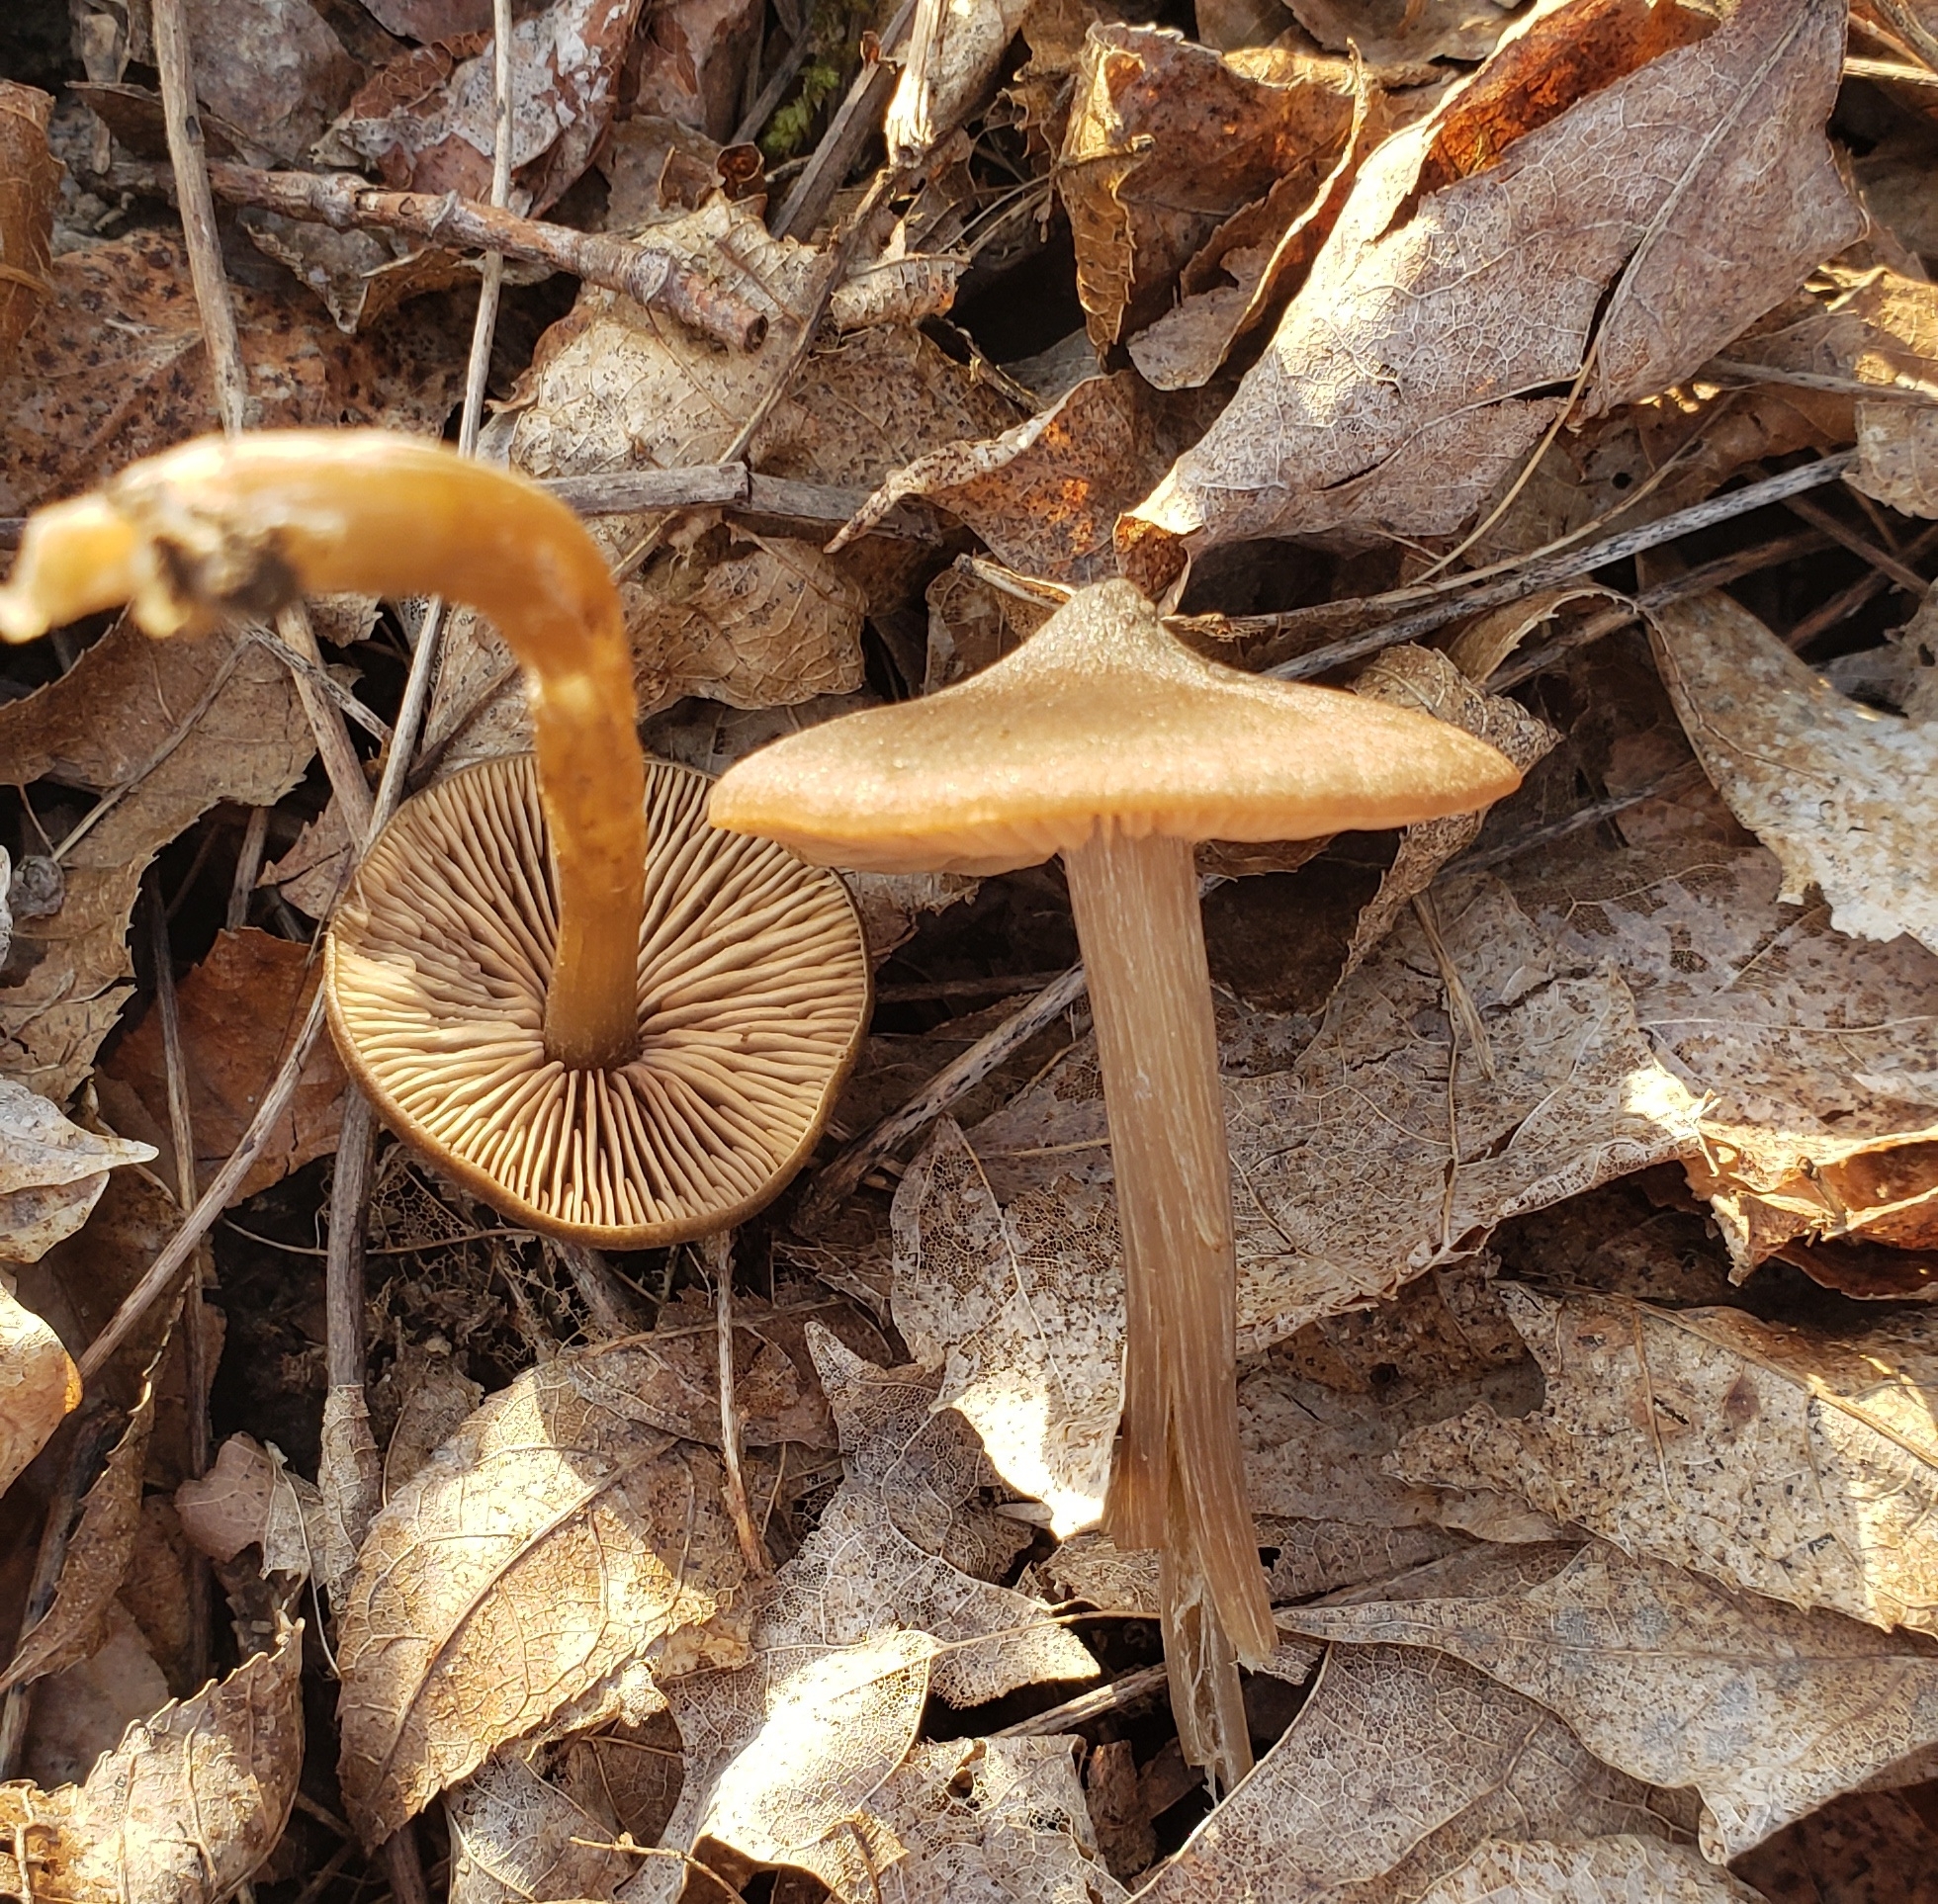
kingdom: Fungi
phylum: Basidiomycota
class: Agaricomycetes
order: Agaricales
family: Entolomataceae
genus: Entoloma
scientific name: Entoloma vernum
